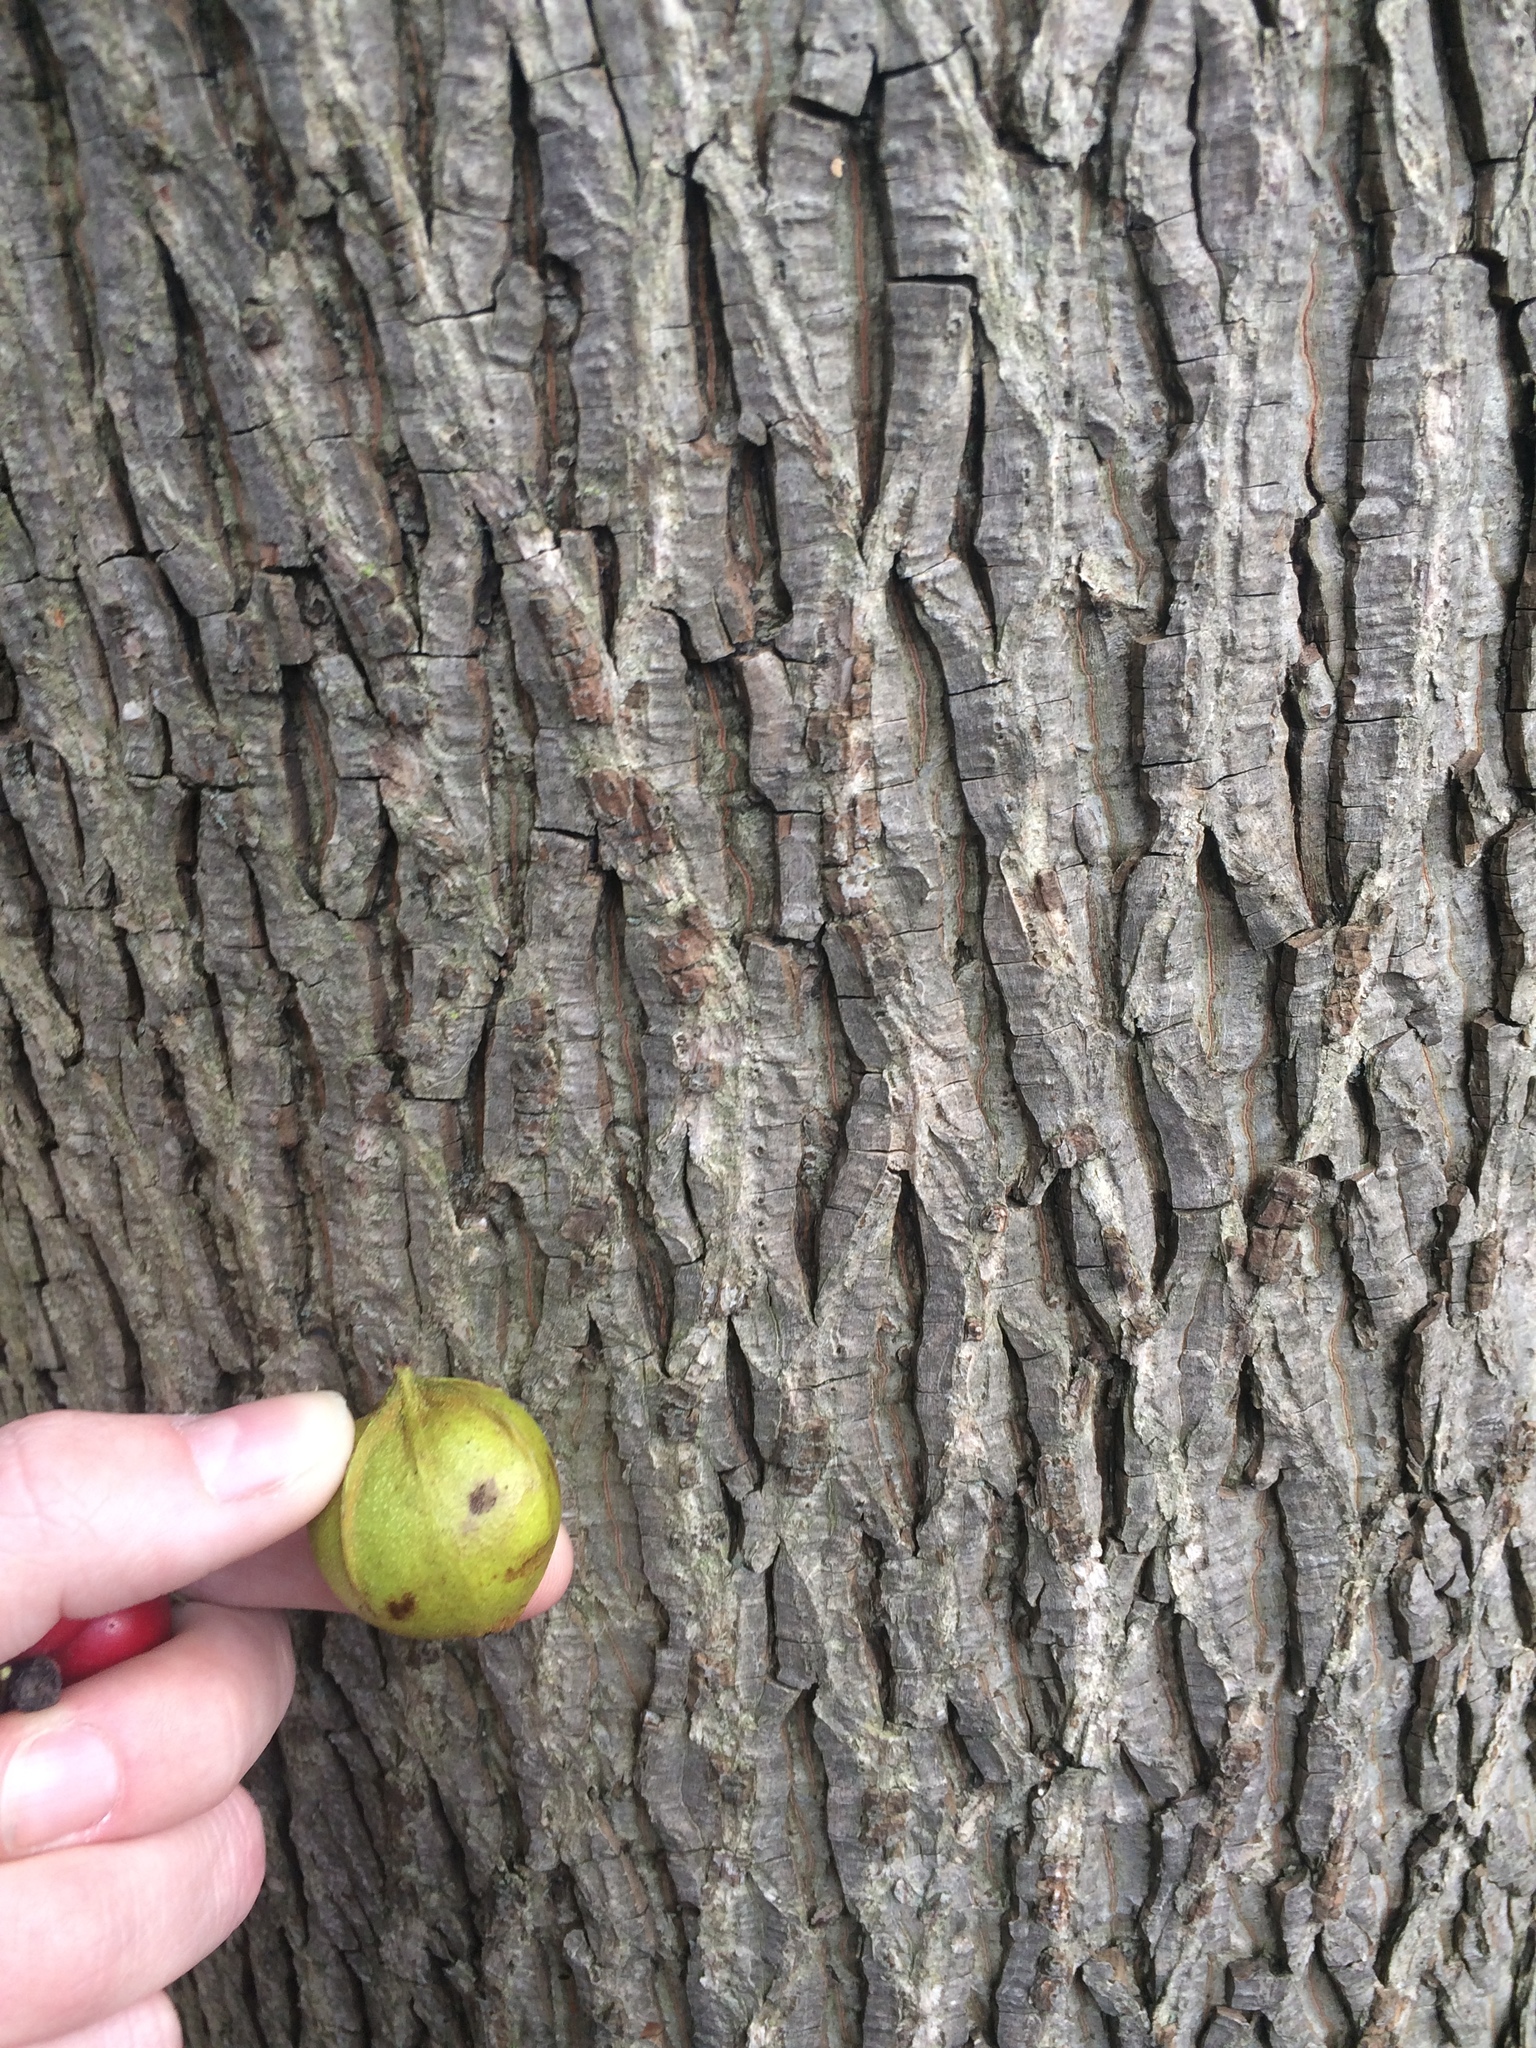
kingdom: Plantae
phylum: Tracheophyta
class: Magnoliopsida
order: Fagales
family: Juglandaceae
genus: Carya
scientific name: Carya cordiformis
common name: Bitternut hickory
